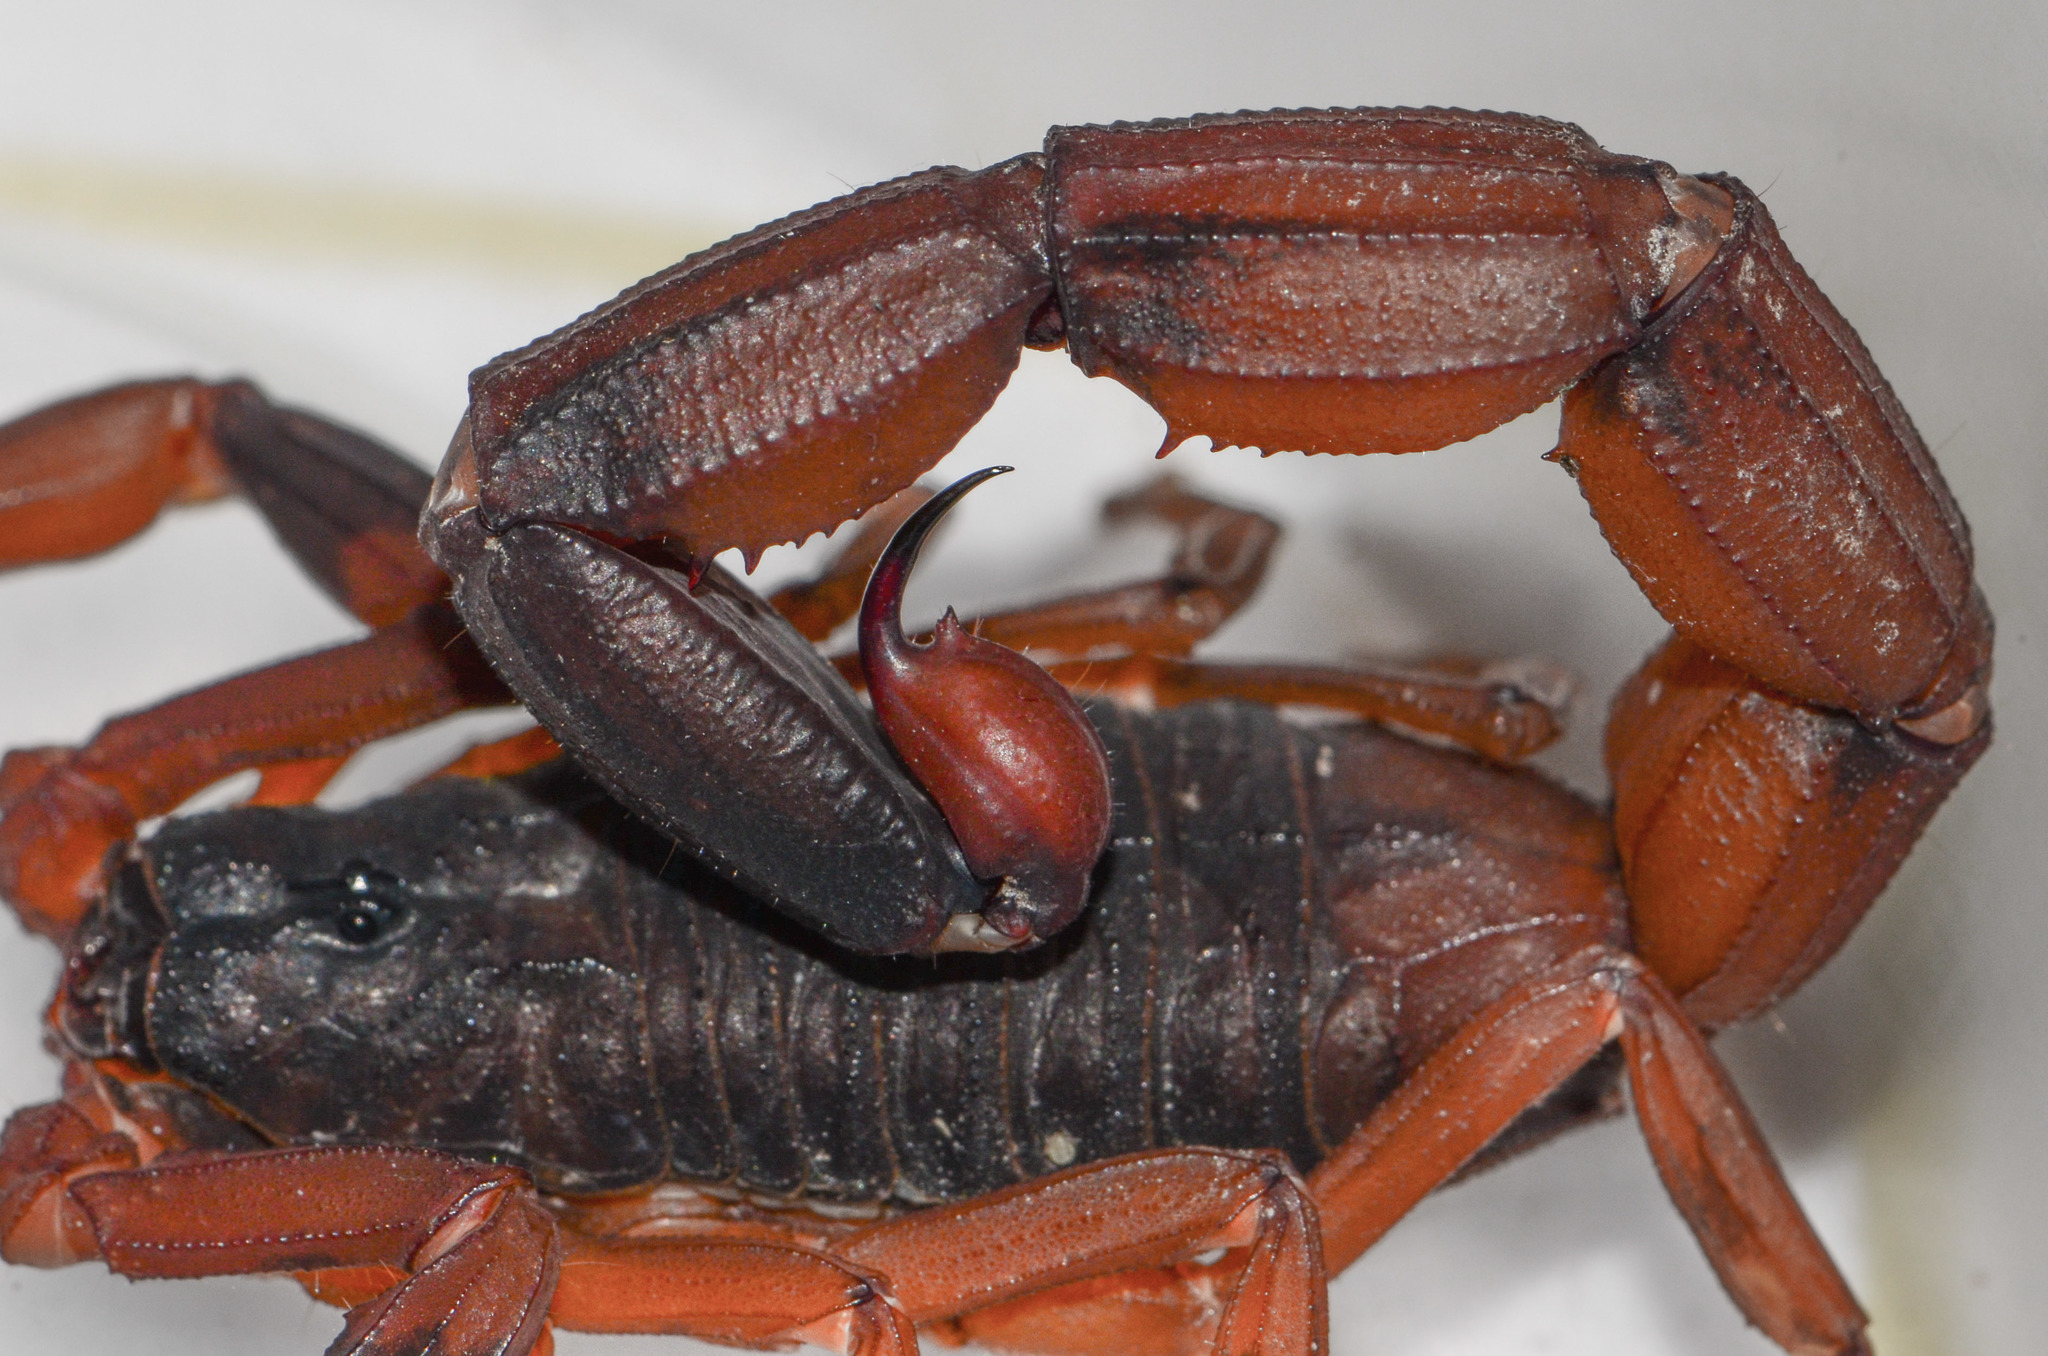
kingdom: Animalia
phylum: Arthropoda
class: Arachnida
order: Scorpiones
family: Buthidae
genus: Tityus
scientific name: Tityus kuryi
